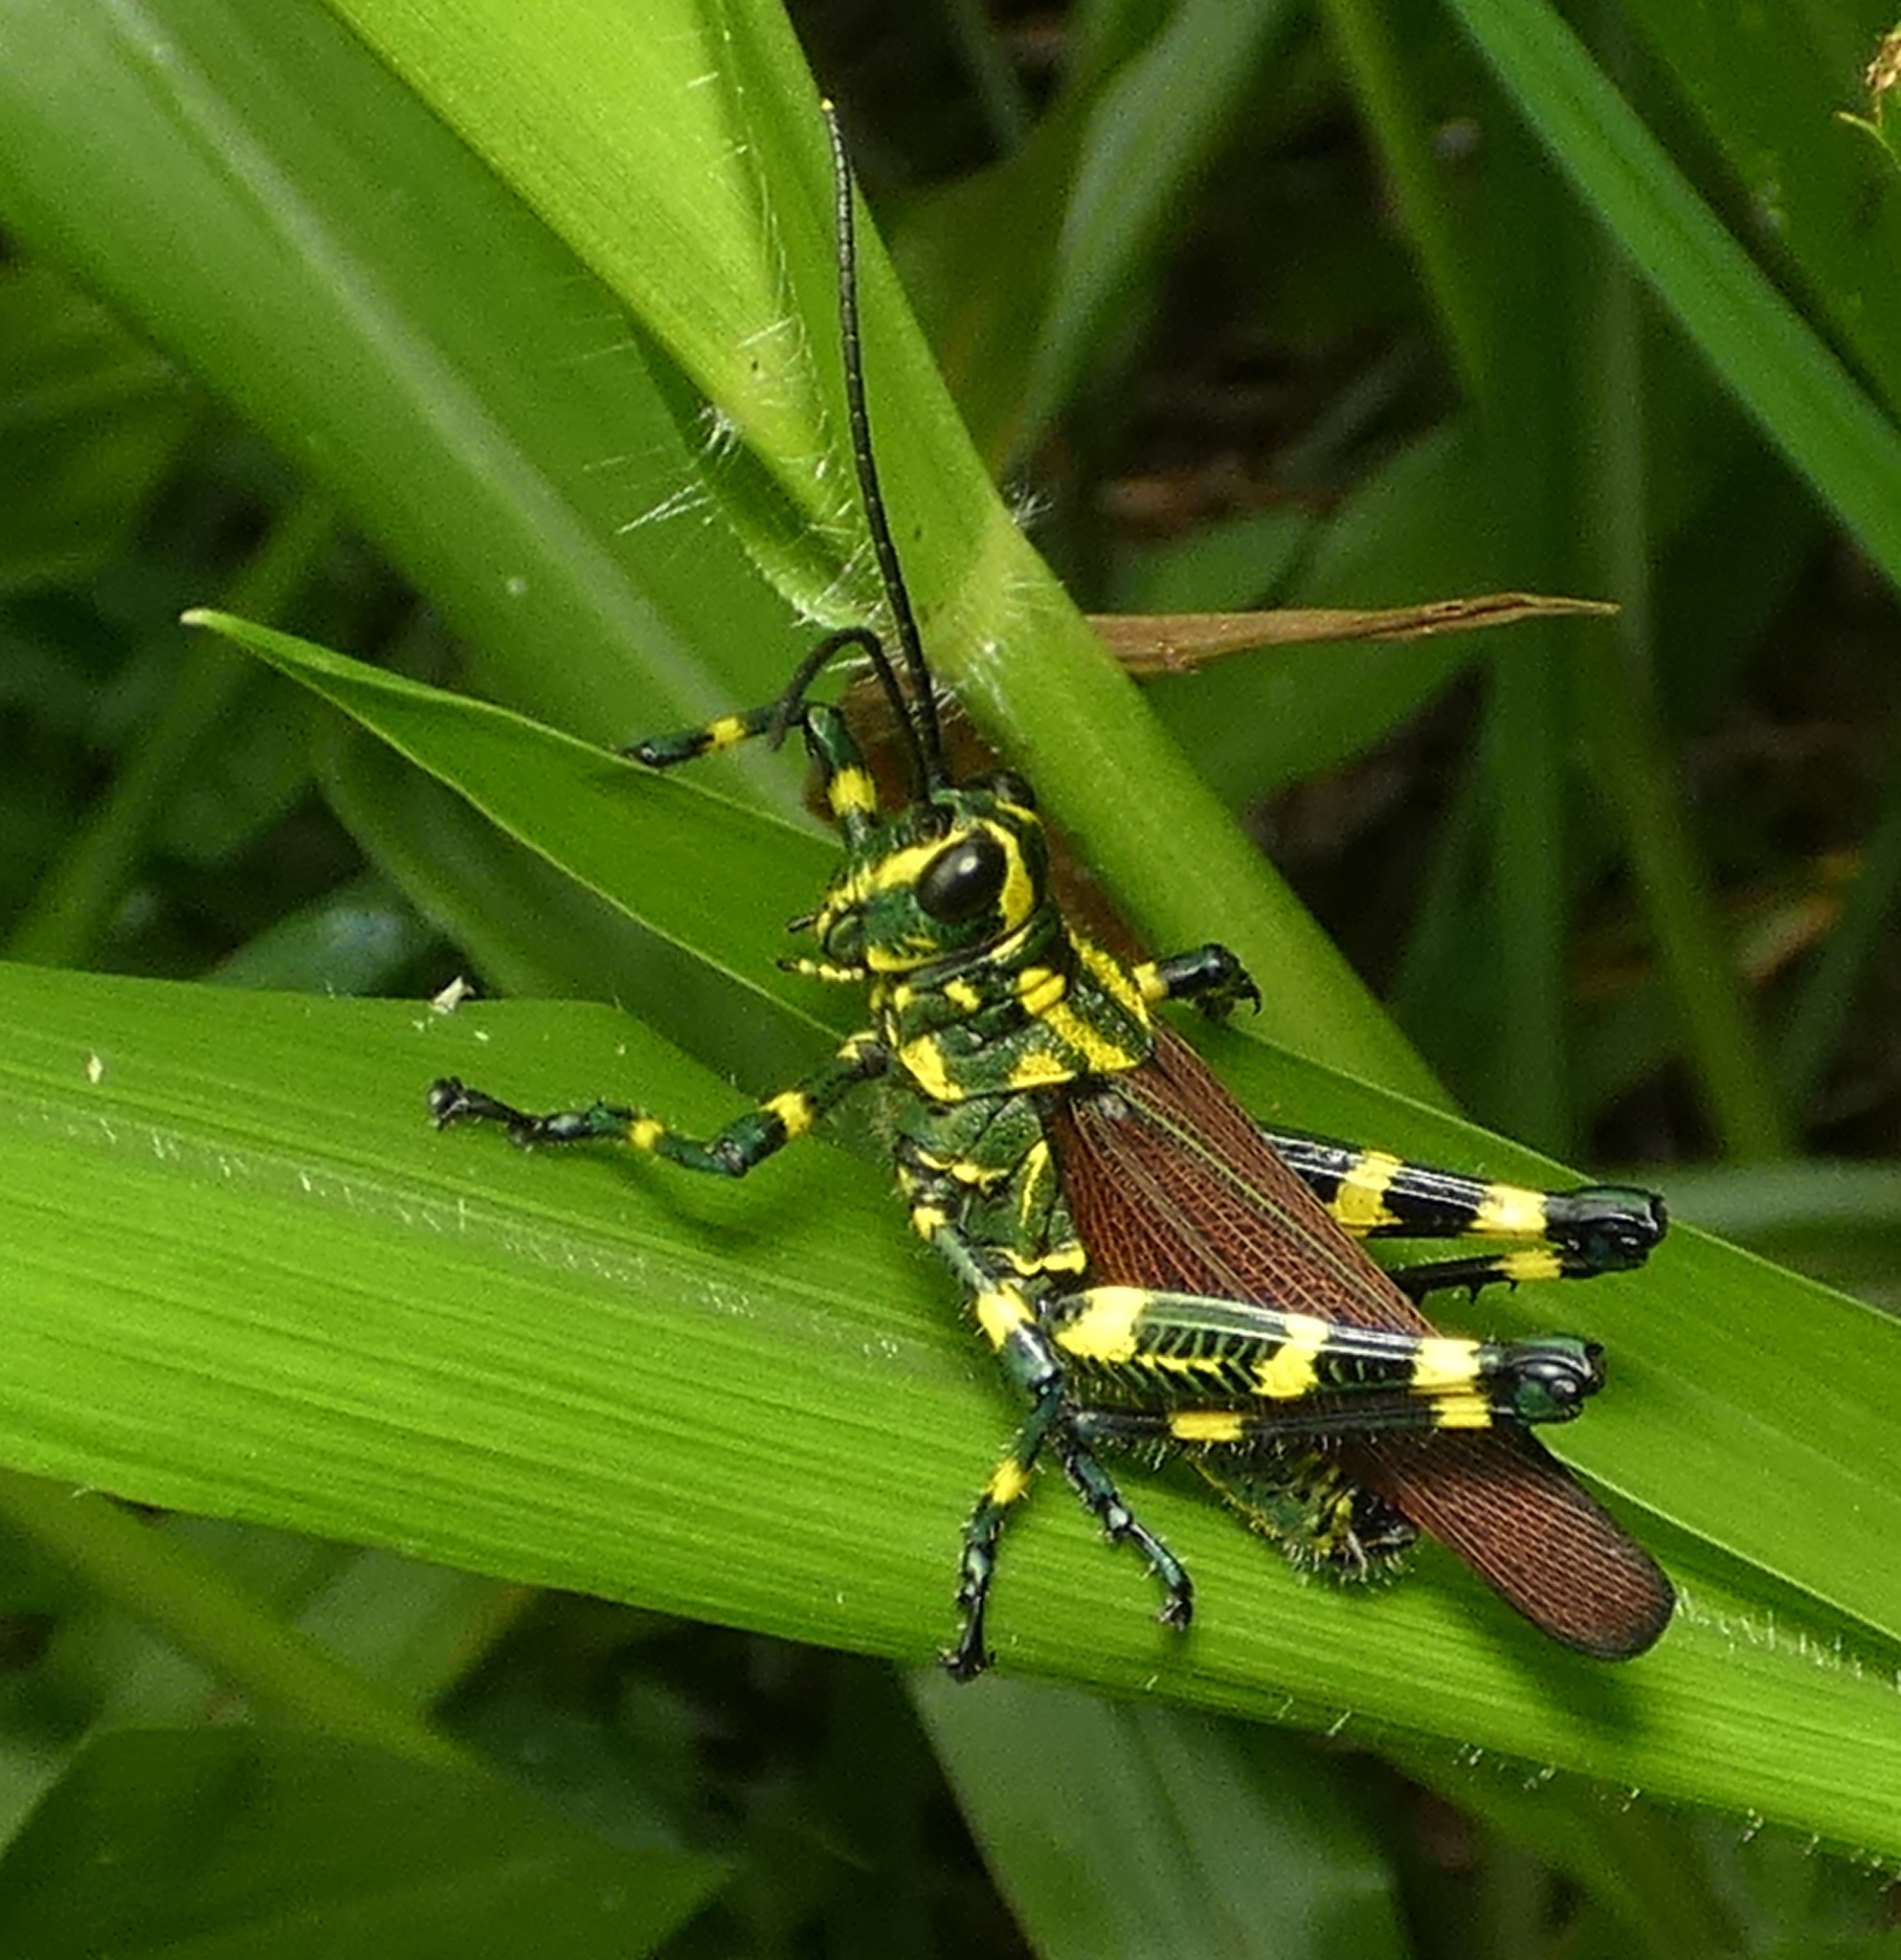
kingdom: Animalia
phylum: Arthropoda
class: Insecta
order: Orthoptera
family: Romaleidae
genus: Chromacris
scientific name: Chromacris speciosa
